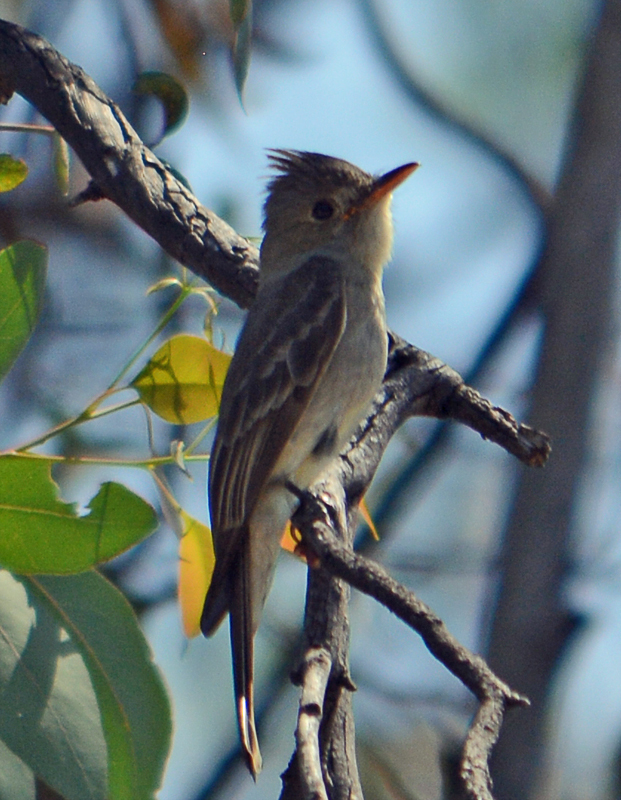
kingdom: Animalia
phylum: Chordata
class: Aves
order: Passeriformes
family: Tyrannidae
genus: Contopus
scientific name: Contopus pertinax
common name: Greater pewee
